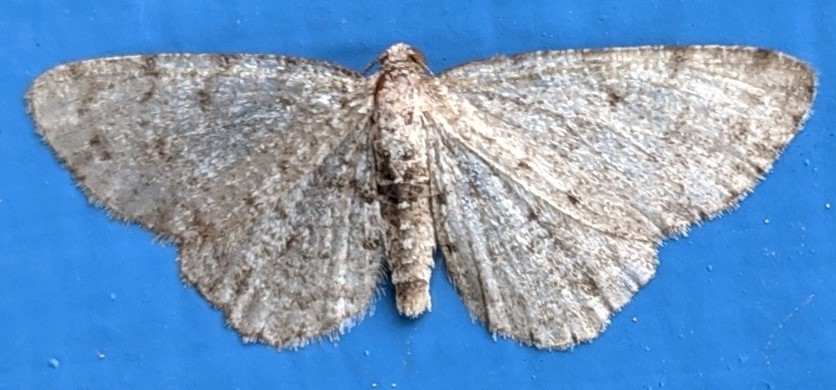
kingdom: Animalia
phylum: Arthropoda
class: Insecta
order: Lepidoptera
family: Geometridae
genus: Aethalura
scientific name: Aethalura intertexta
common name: Four-barred gray
